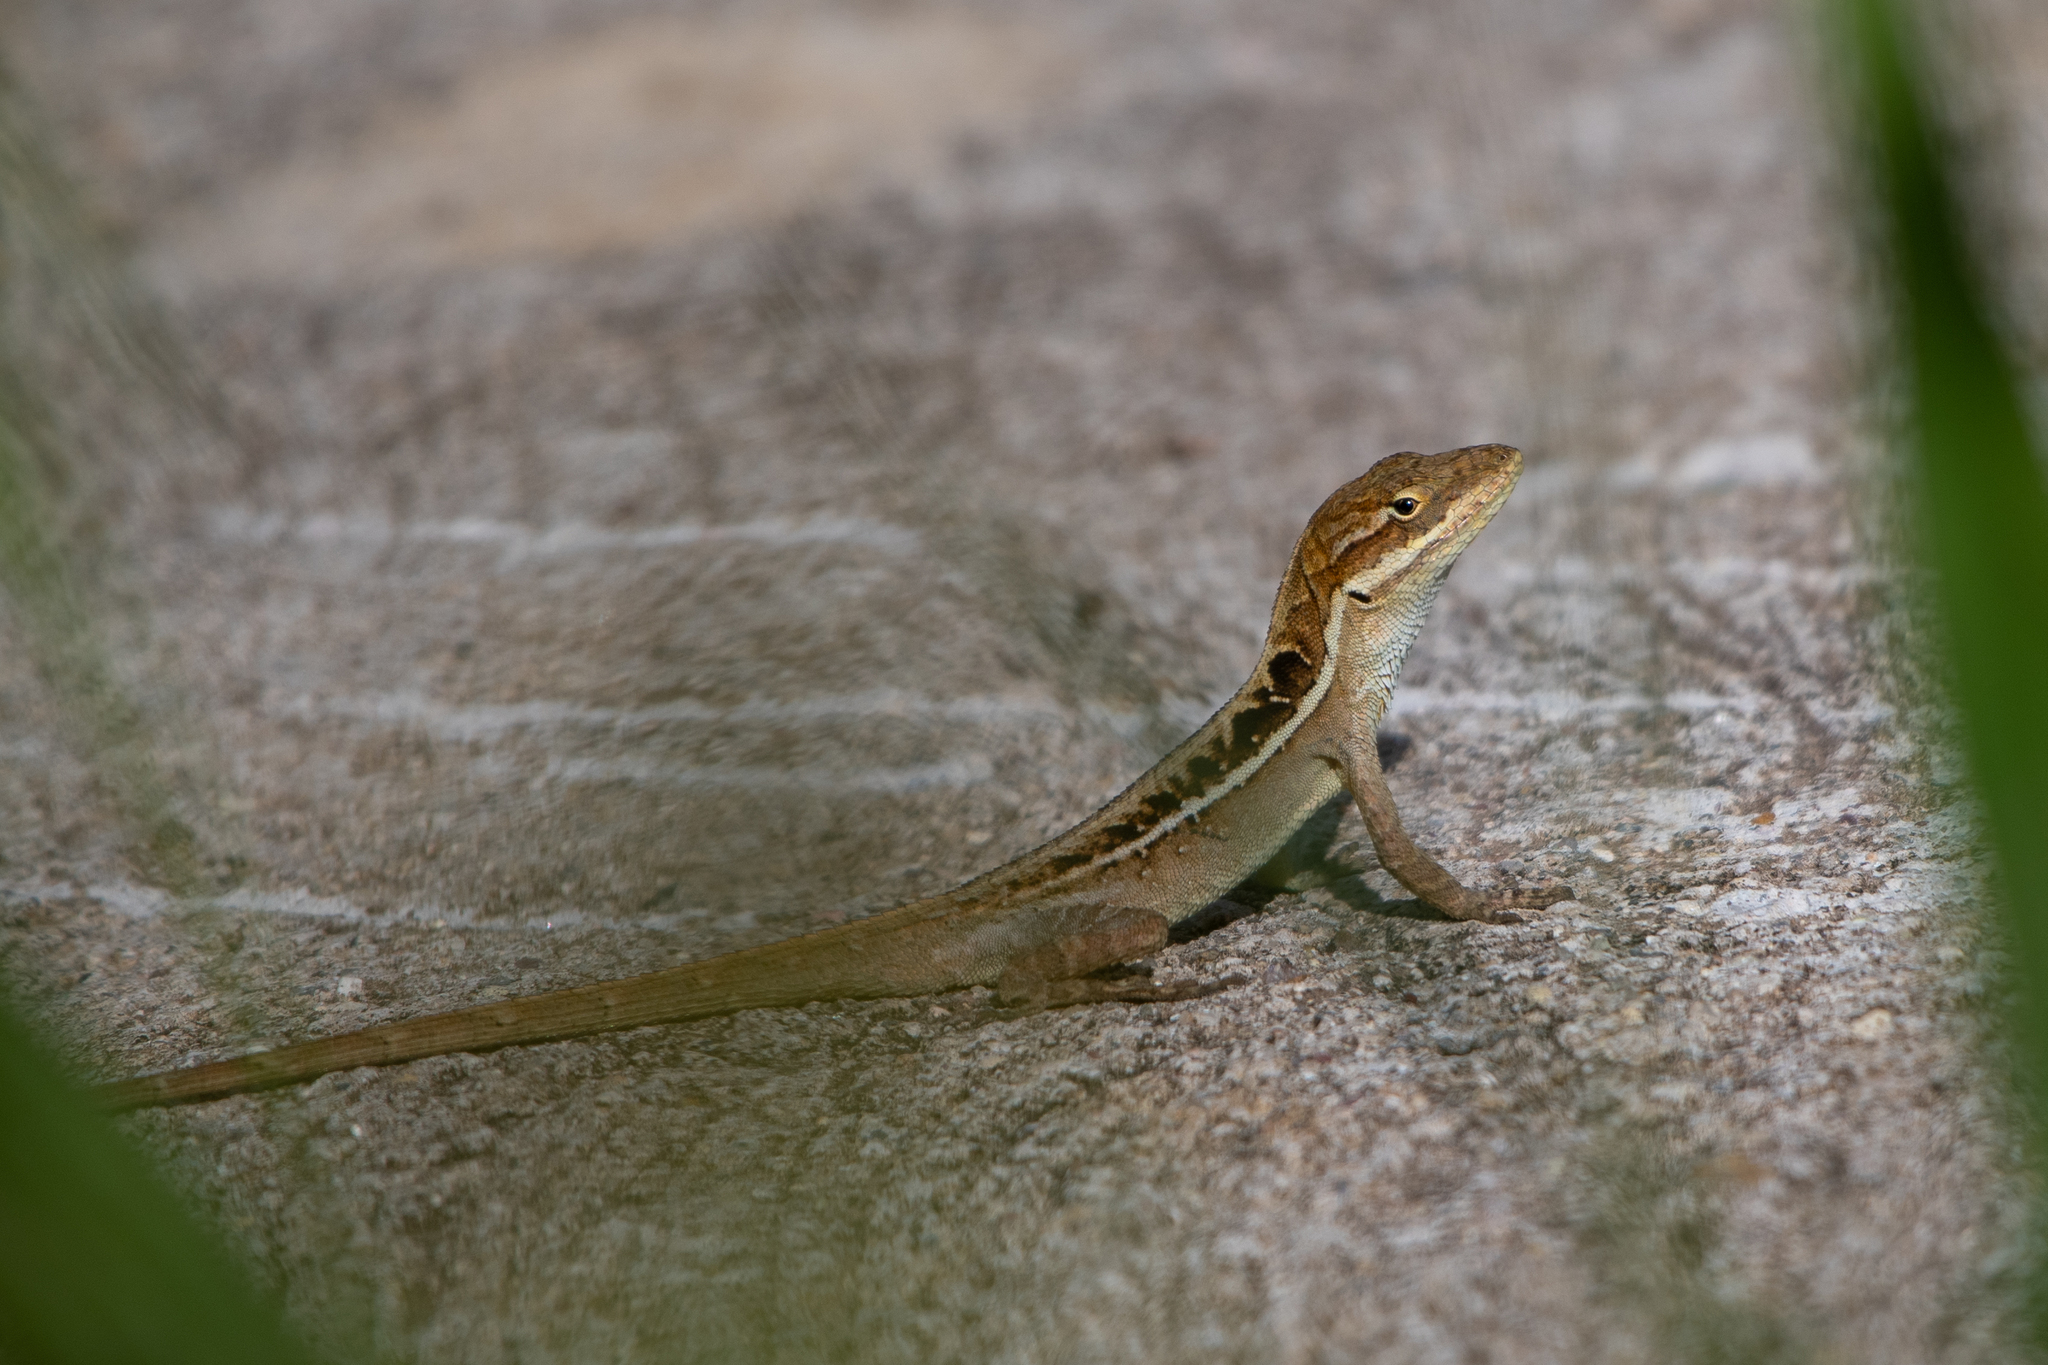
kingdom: Animalia
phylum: Chordata
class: Squamata
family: Dactyloidae
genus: Anolis
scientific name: Anolis caceresae
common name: Berta’s anole
